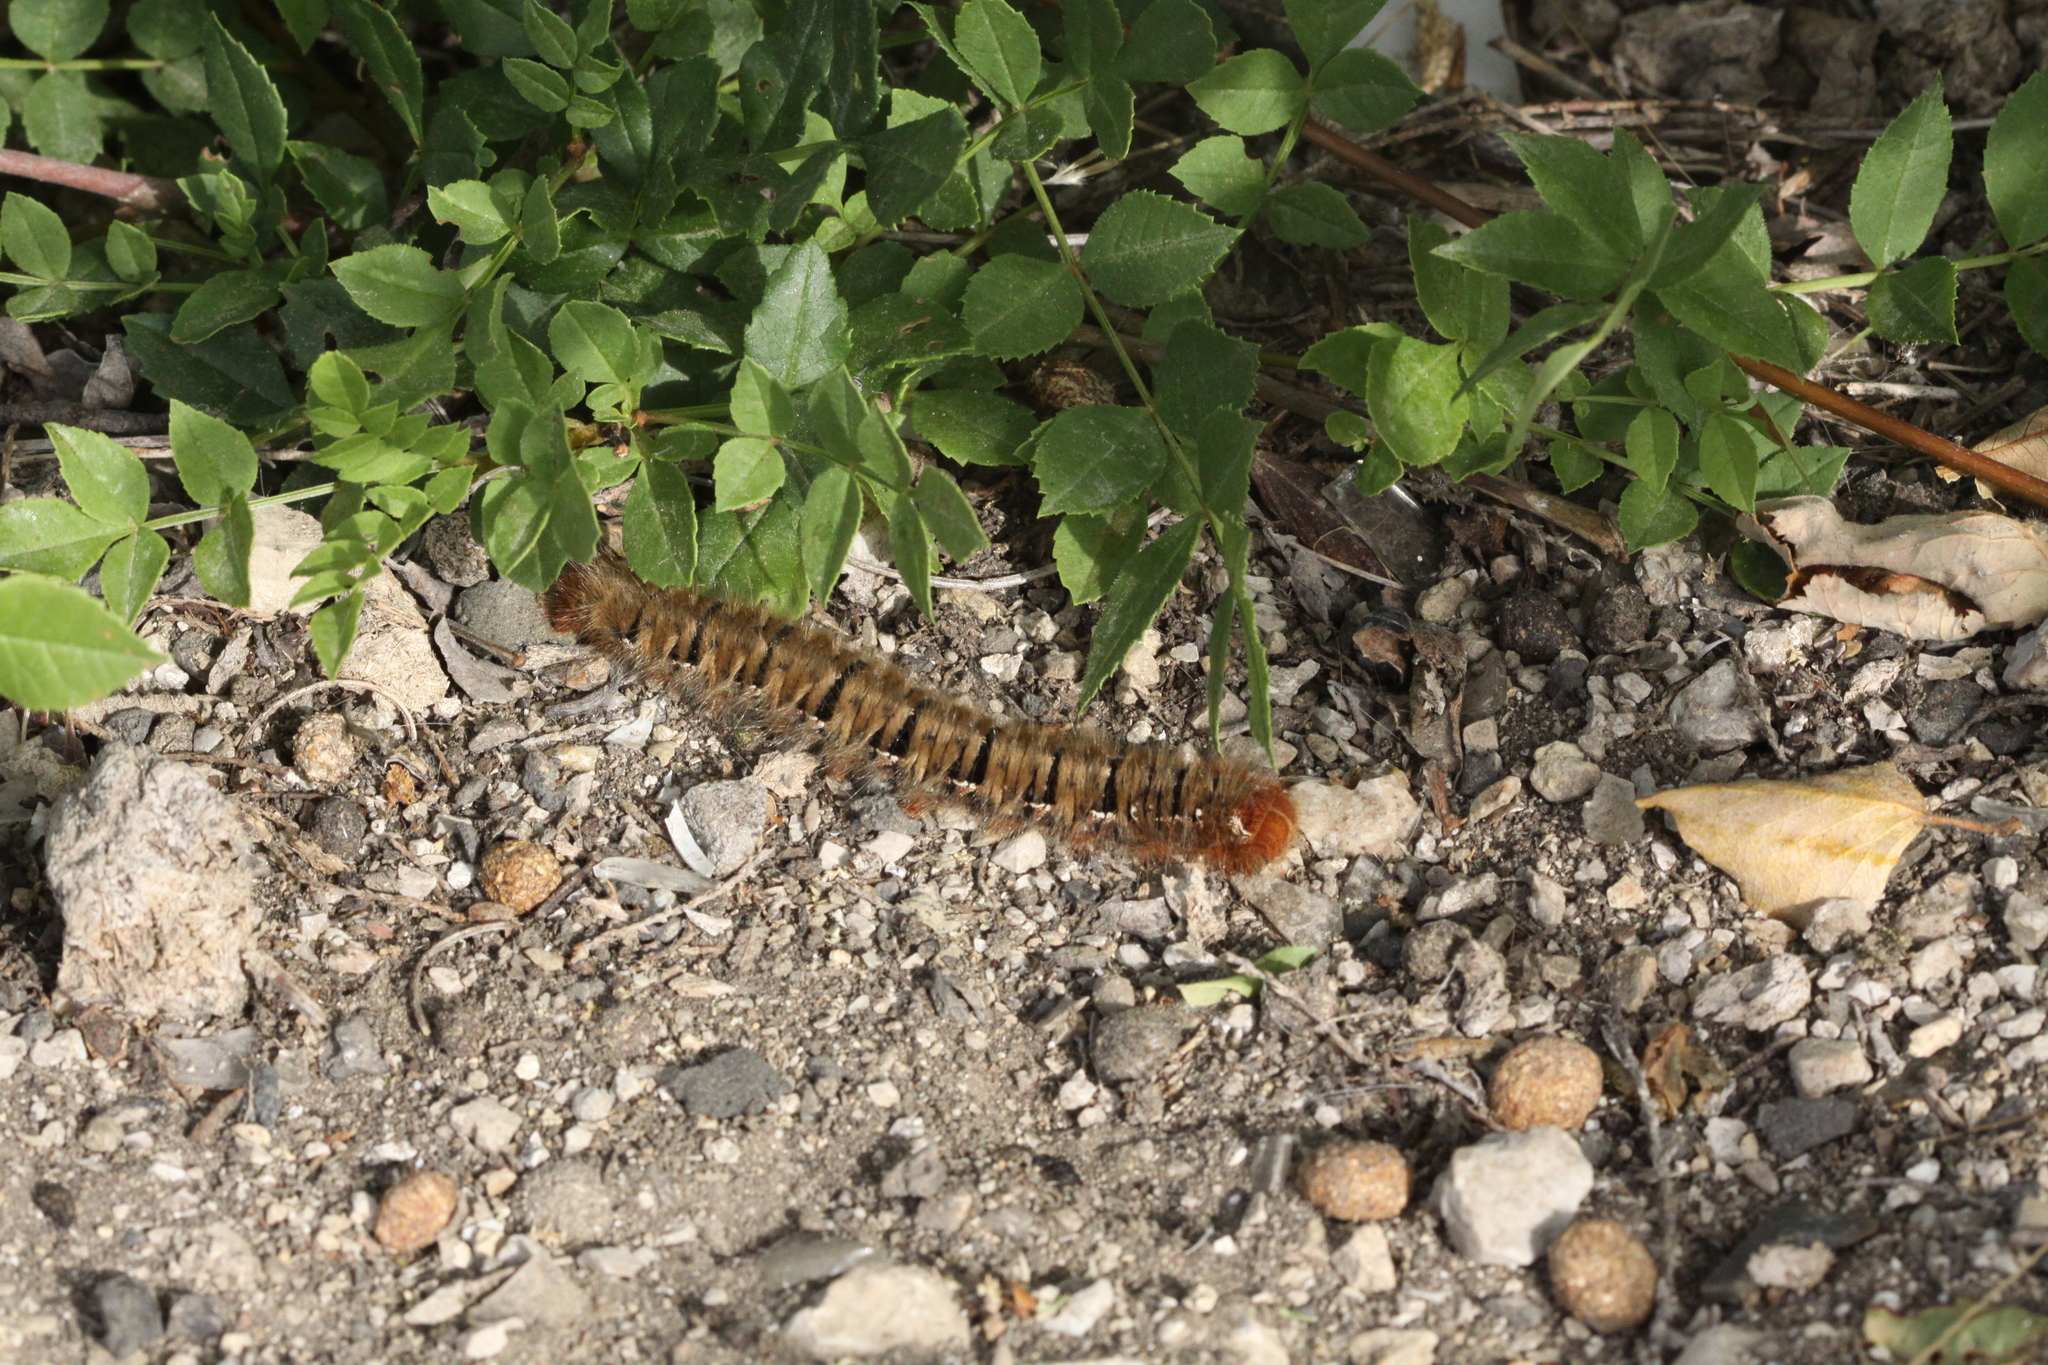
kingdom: Animalia
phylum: Arthropoda
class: Insecta
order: Lepidoptera
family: Lasiocampidae
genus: Lasiocampa
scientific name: Lasiocampa quercus
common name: Oak eggar
